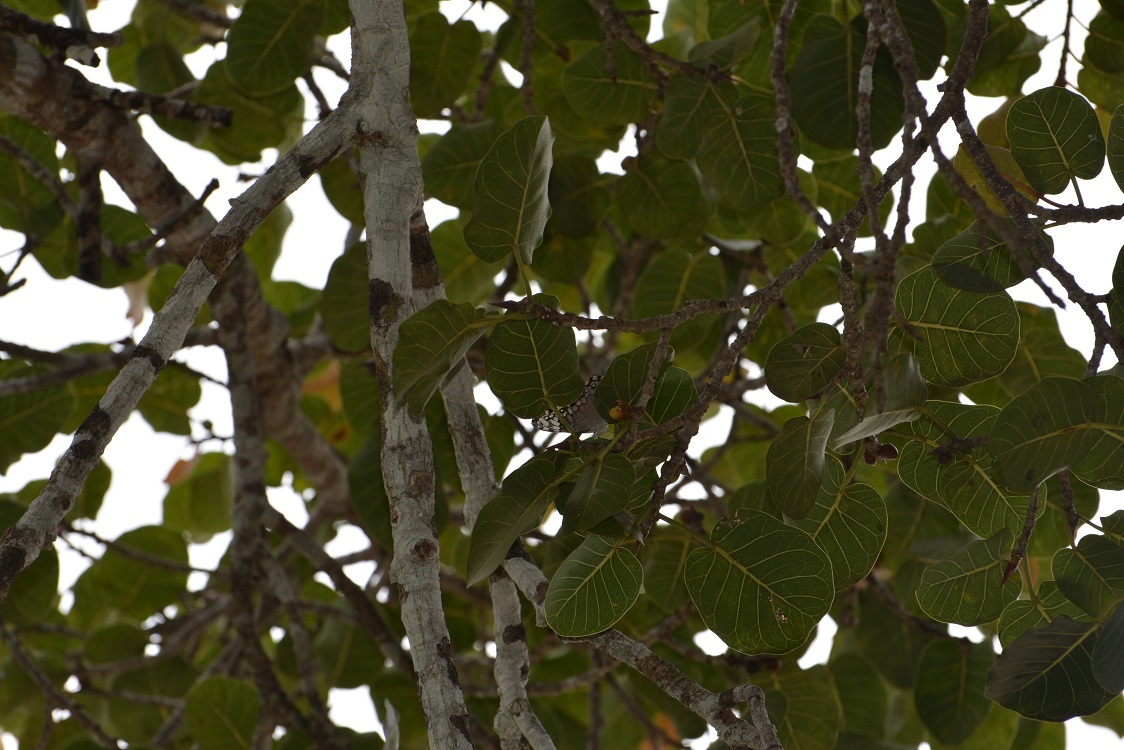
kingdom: Plantae
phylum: Tracheophyta
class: Magnoliopsida
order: Rosales
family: Moraceae
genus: Ficus
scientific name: Ficus aurea
